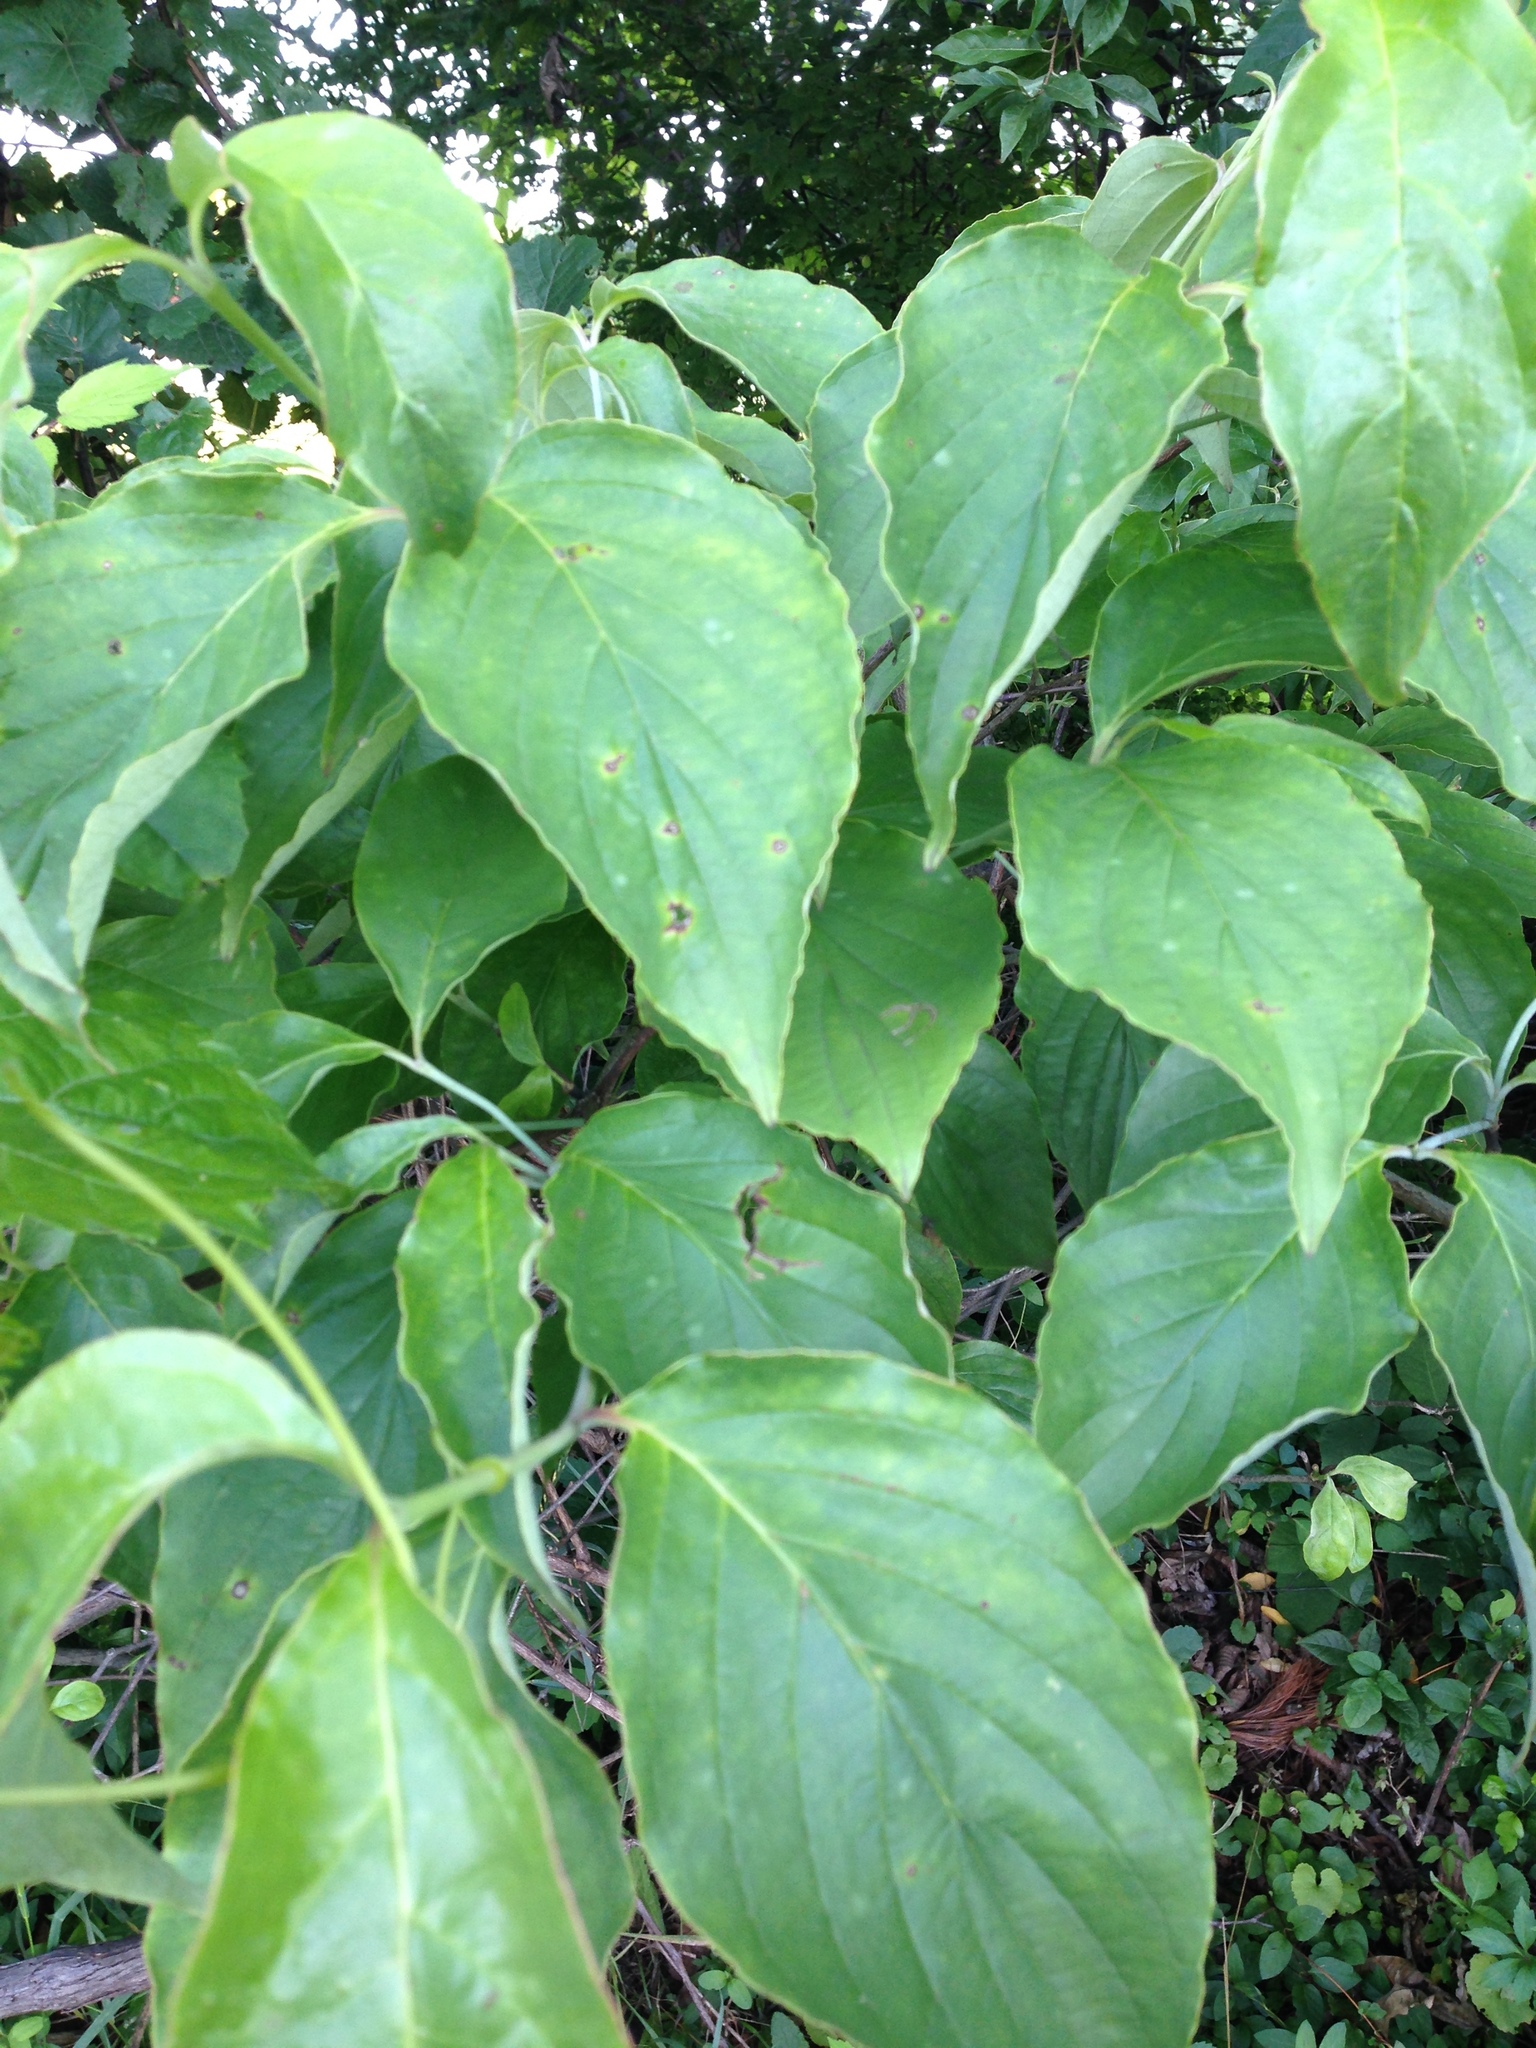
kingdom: Plantae
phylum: Tracheophyta
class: Magnoliopsida
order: Cornales
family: Cornaceae
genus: Cornus
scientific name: Cornus florida
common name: Flowering dogwood
